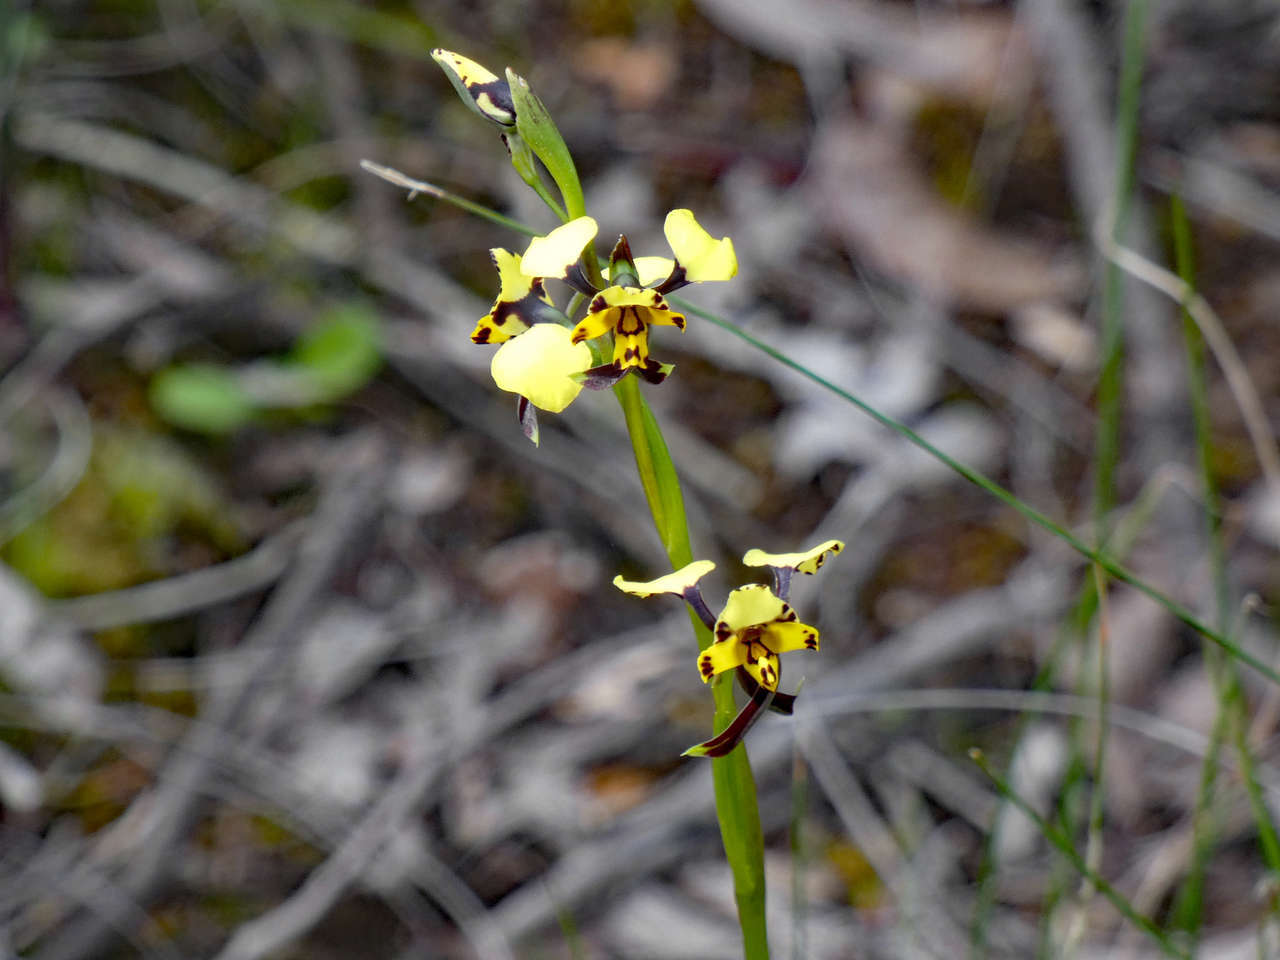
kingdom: Plantae
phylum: Tracheophyta
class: Liliopsida
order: Asparagales
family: Orchidaceae
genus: Diuris
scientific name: Diuris pardina
